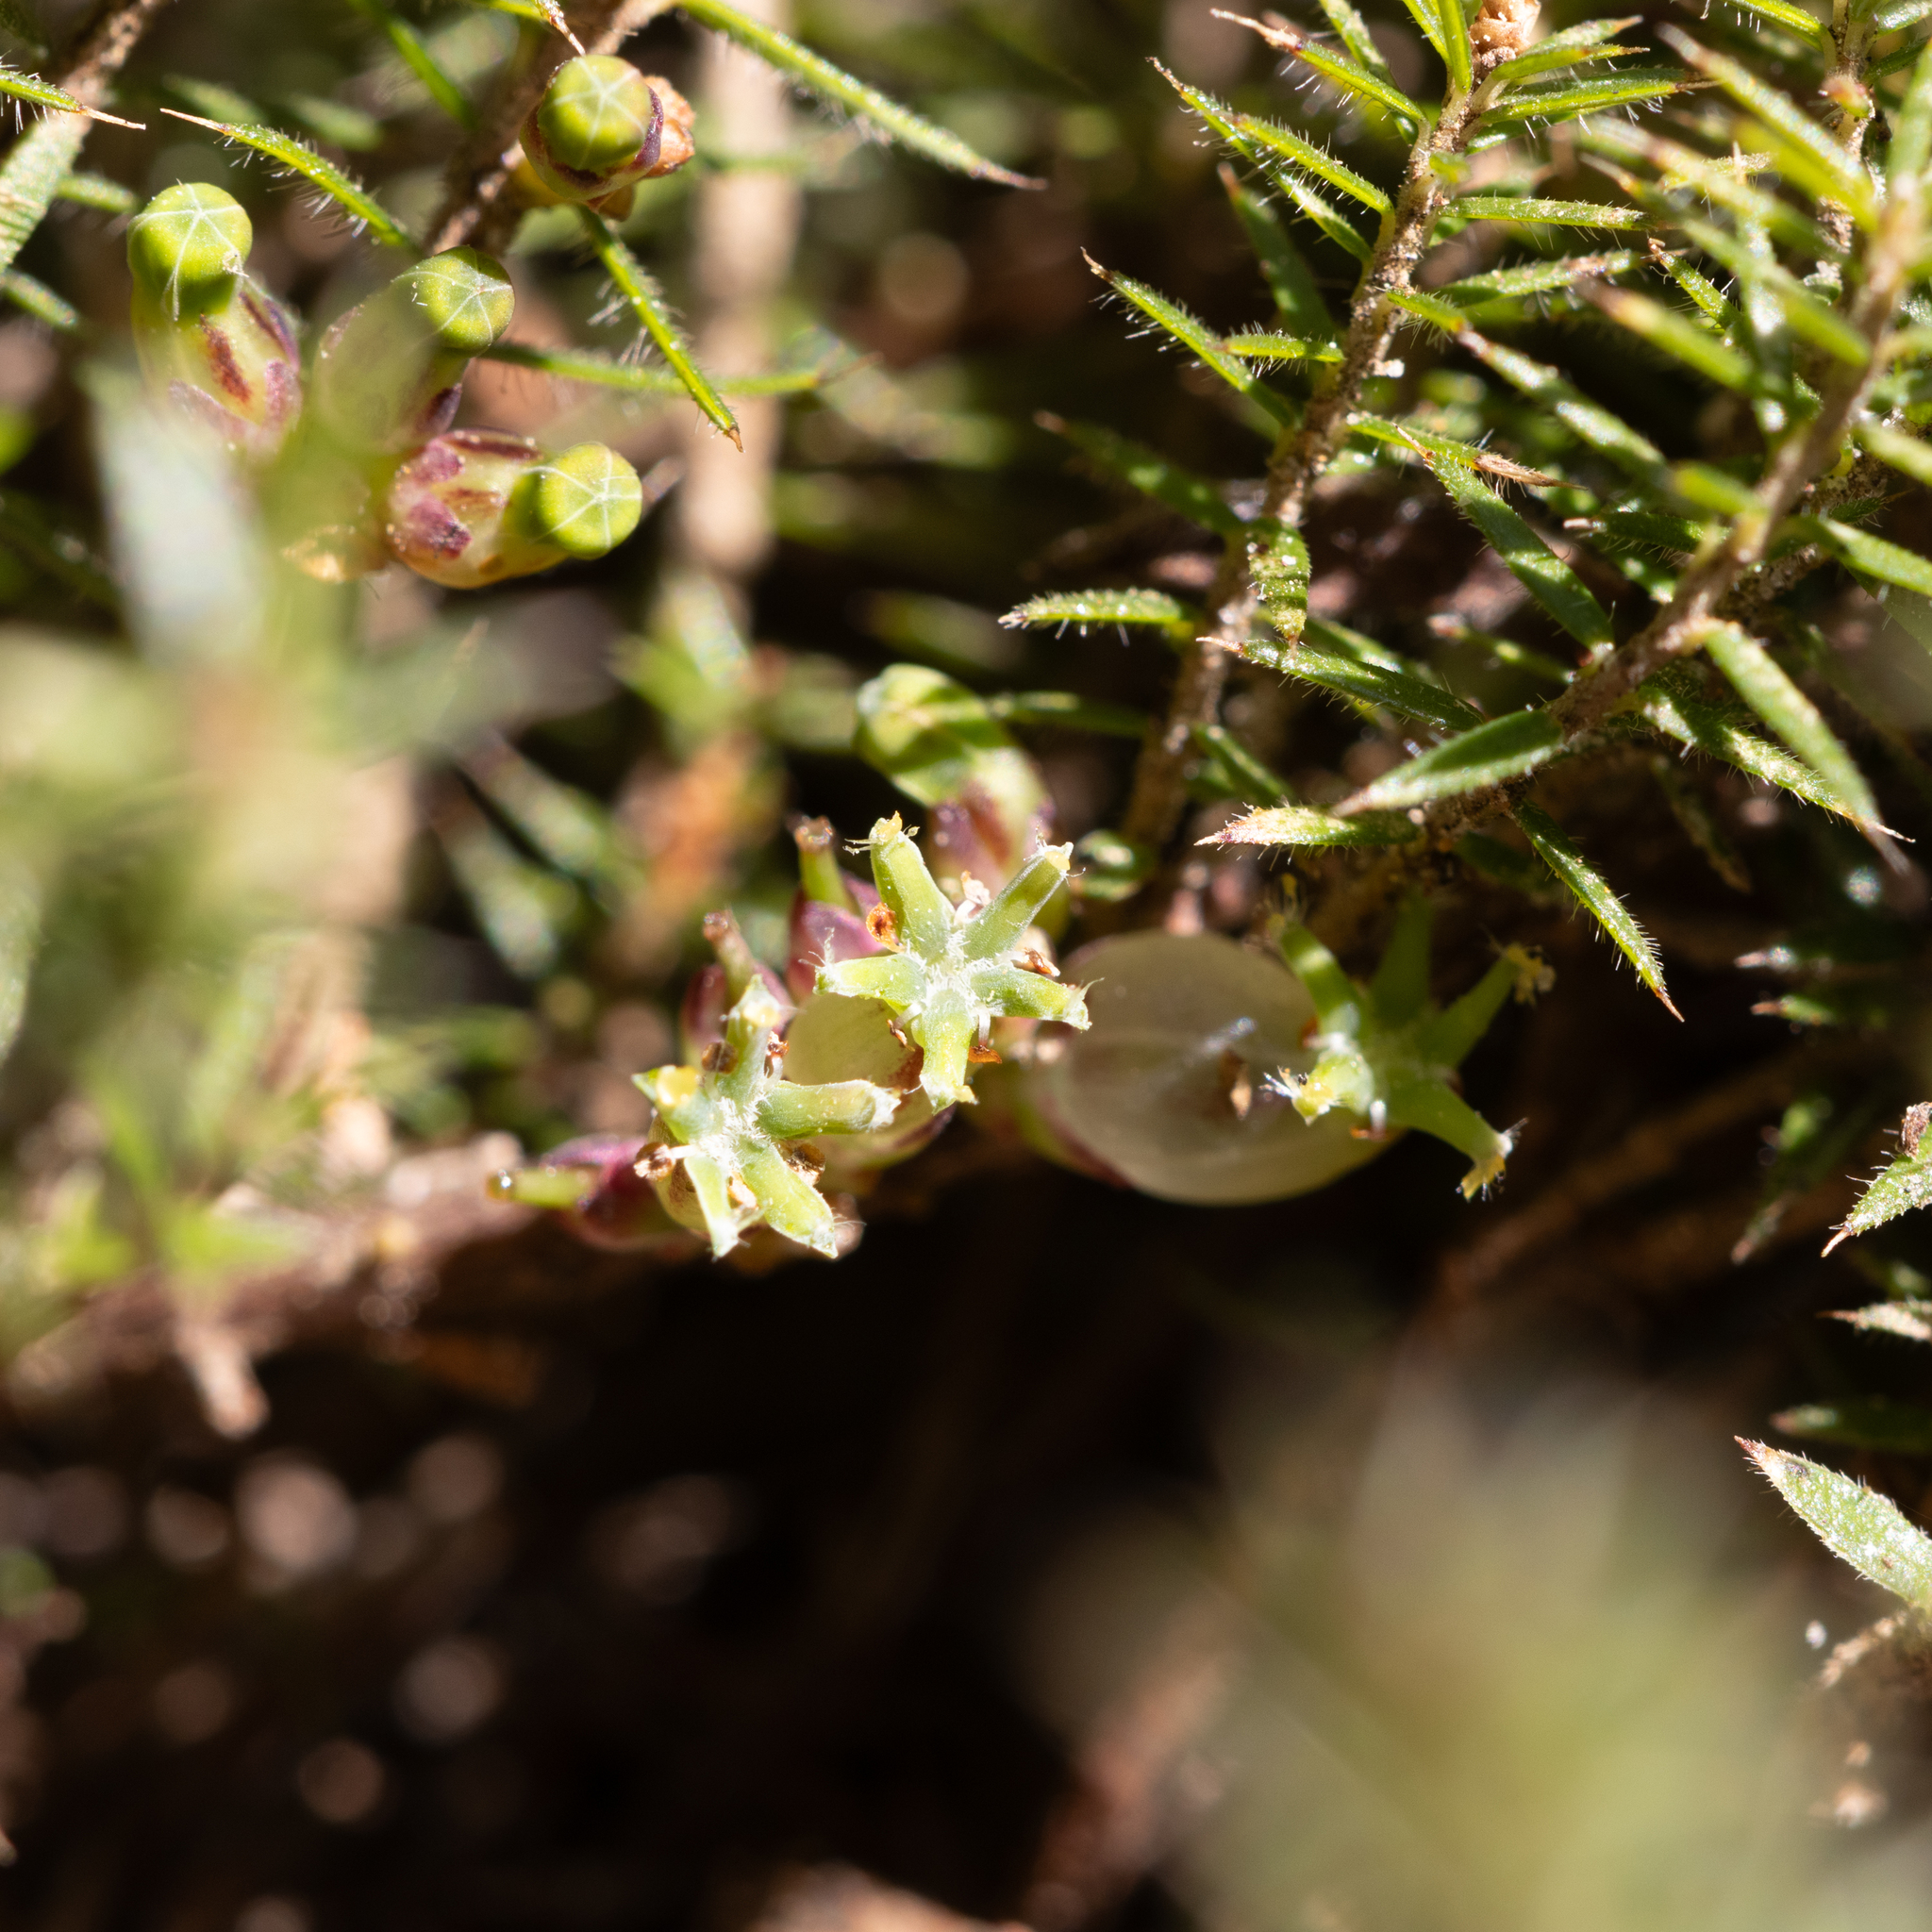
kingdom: Plantae
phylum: Tracheophyta
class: Magnoliopsida
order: Ericales
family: Ericaceae
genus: Acrotriche
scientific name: Acrotriche serrulata
